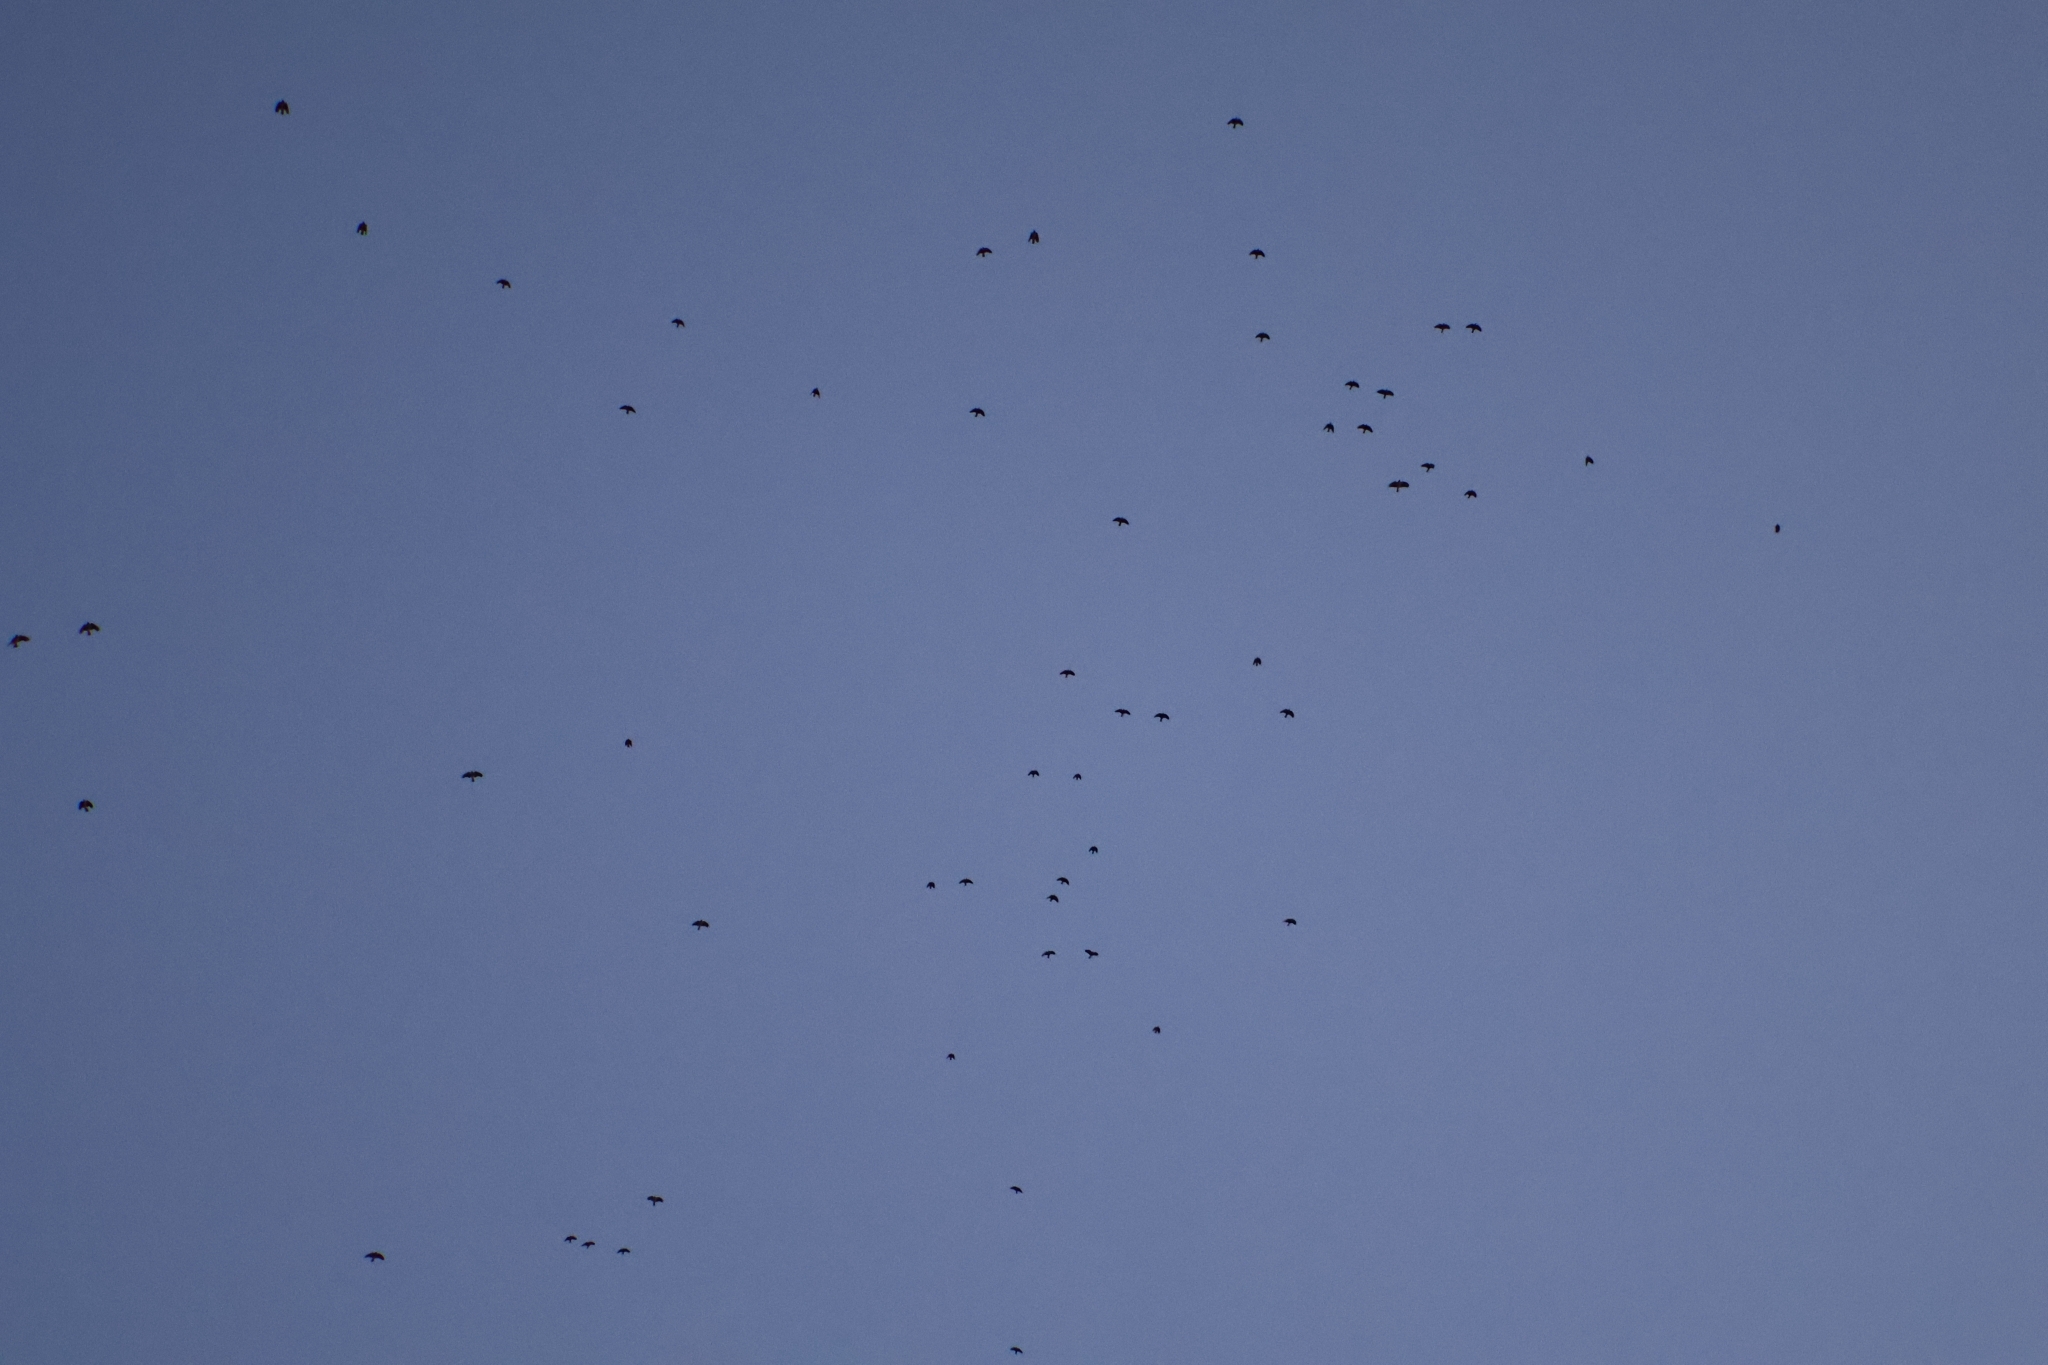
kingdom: Animalia
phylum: Chordata
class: Aves
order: Passeriformes
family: Corvidae
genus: Coloeus
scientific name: Coloeus monedula
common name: Western jackdaw
